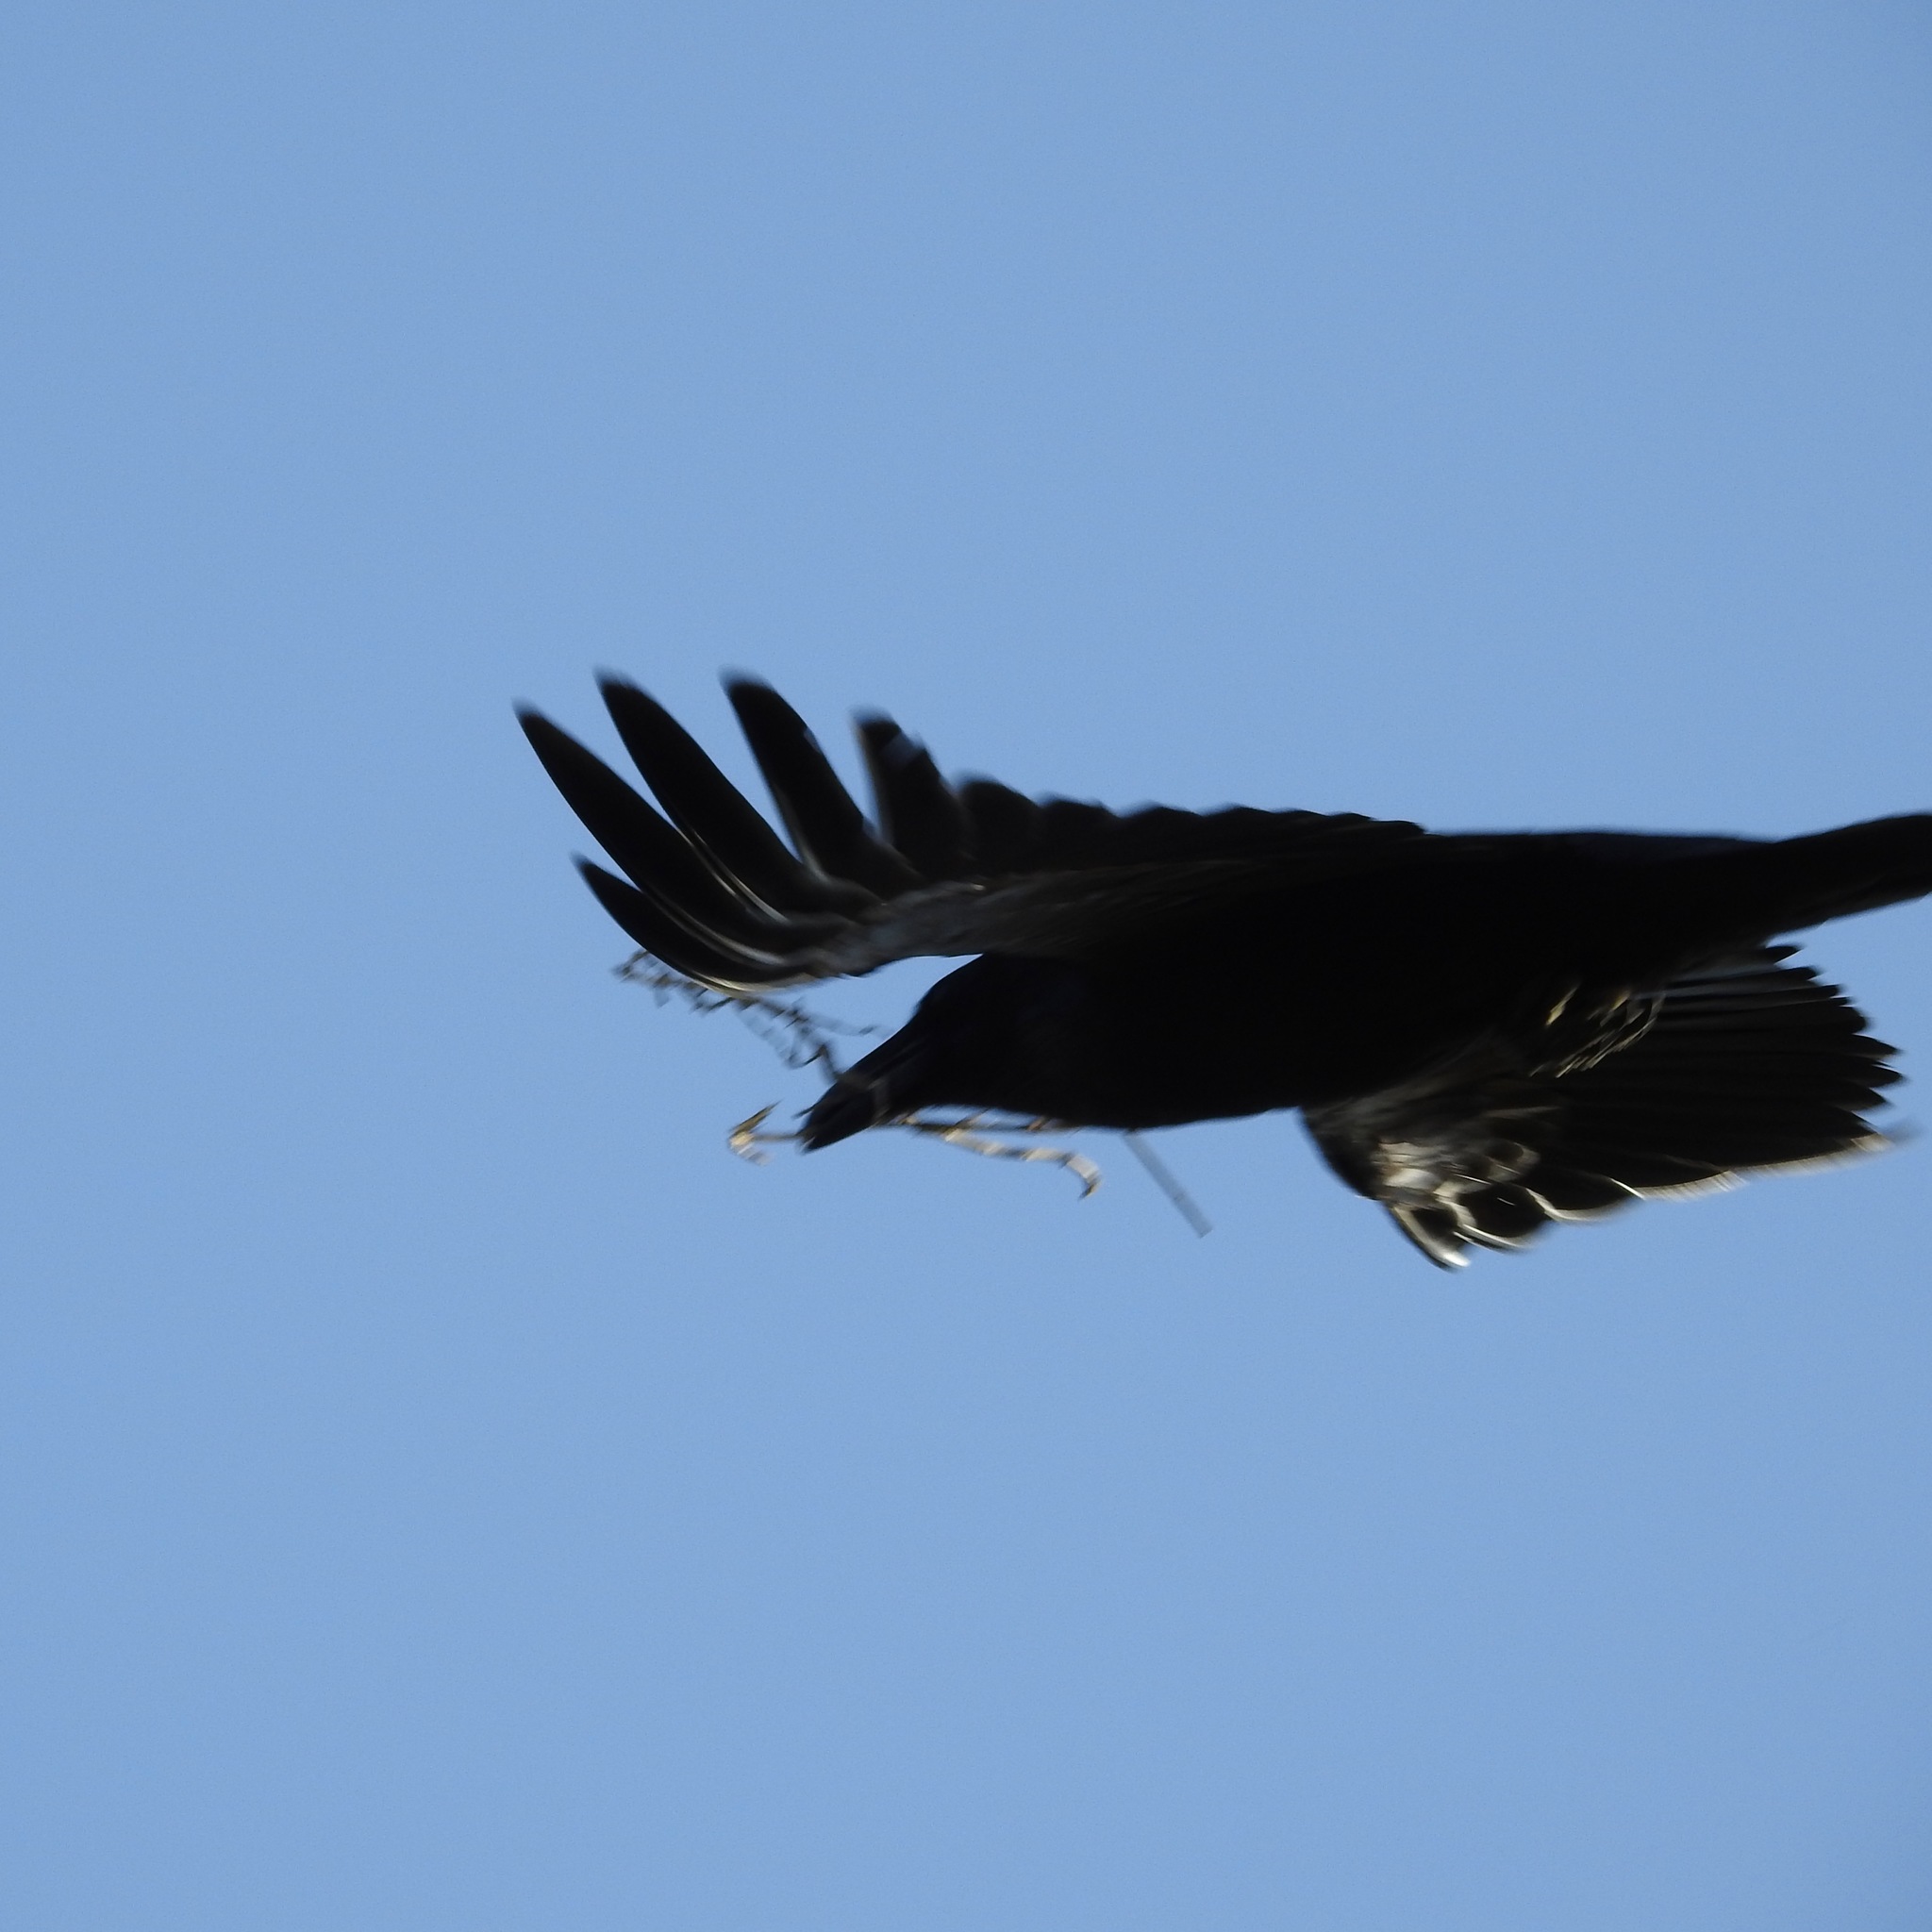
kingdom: Animalia
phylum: Chordata
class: Aves
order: Passeriformes
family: Corvidae
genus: Corvus
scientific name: Corvus brachyrhynchos
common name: American crow
